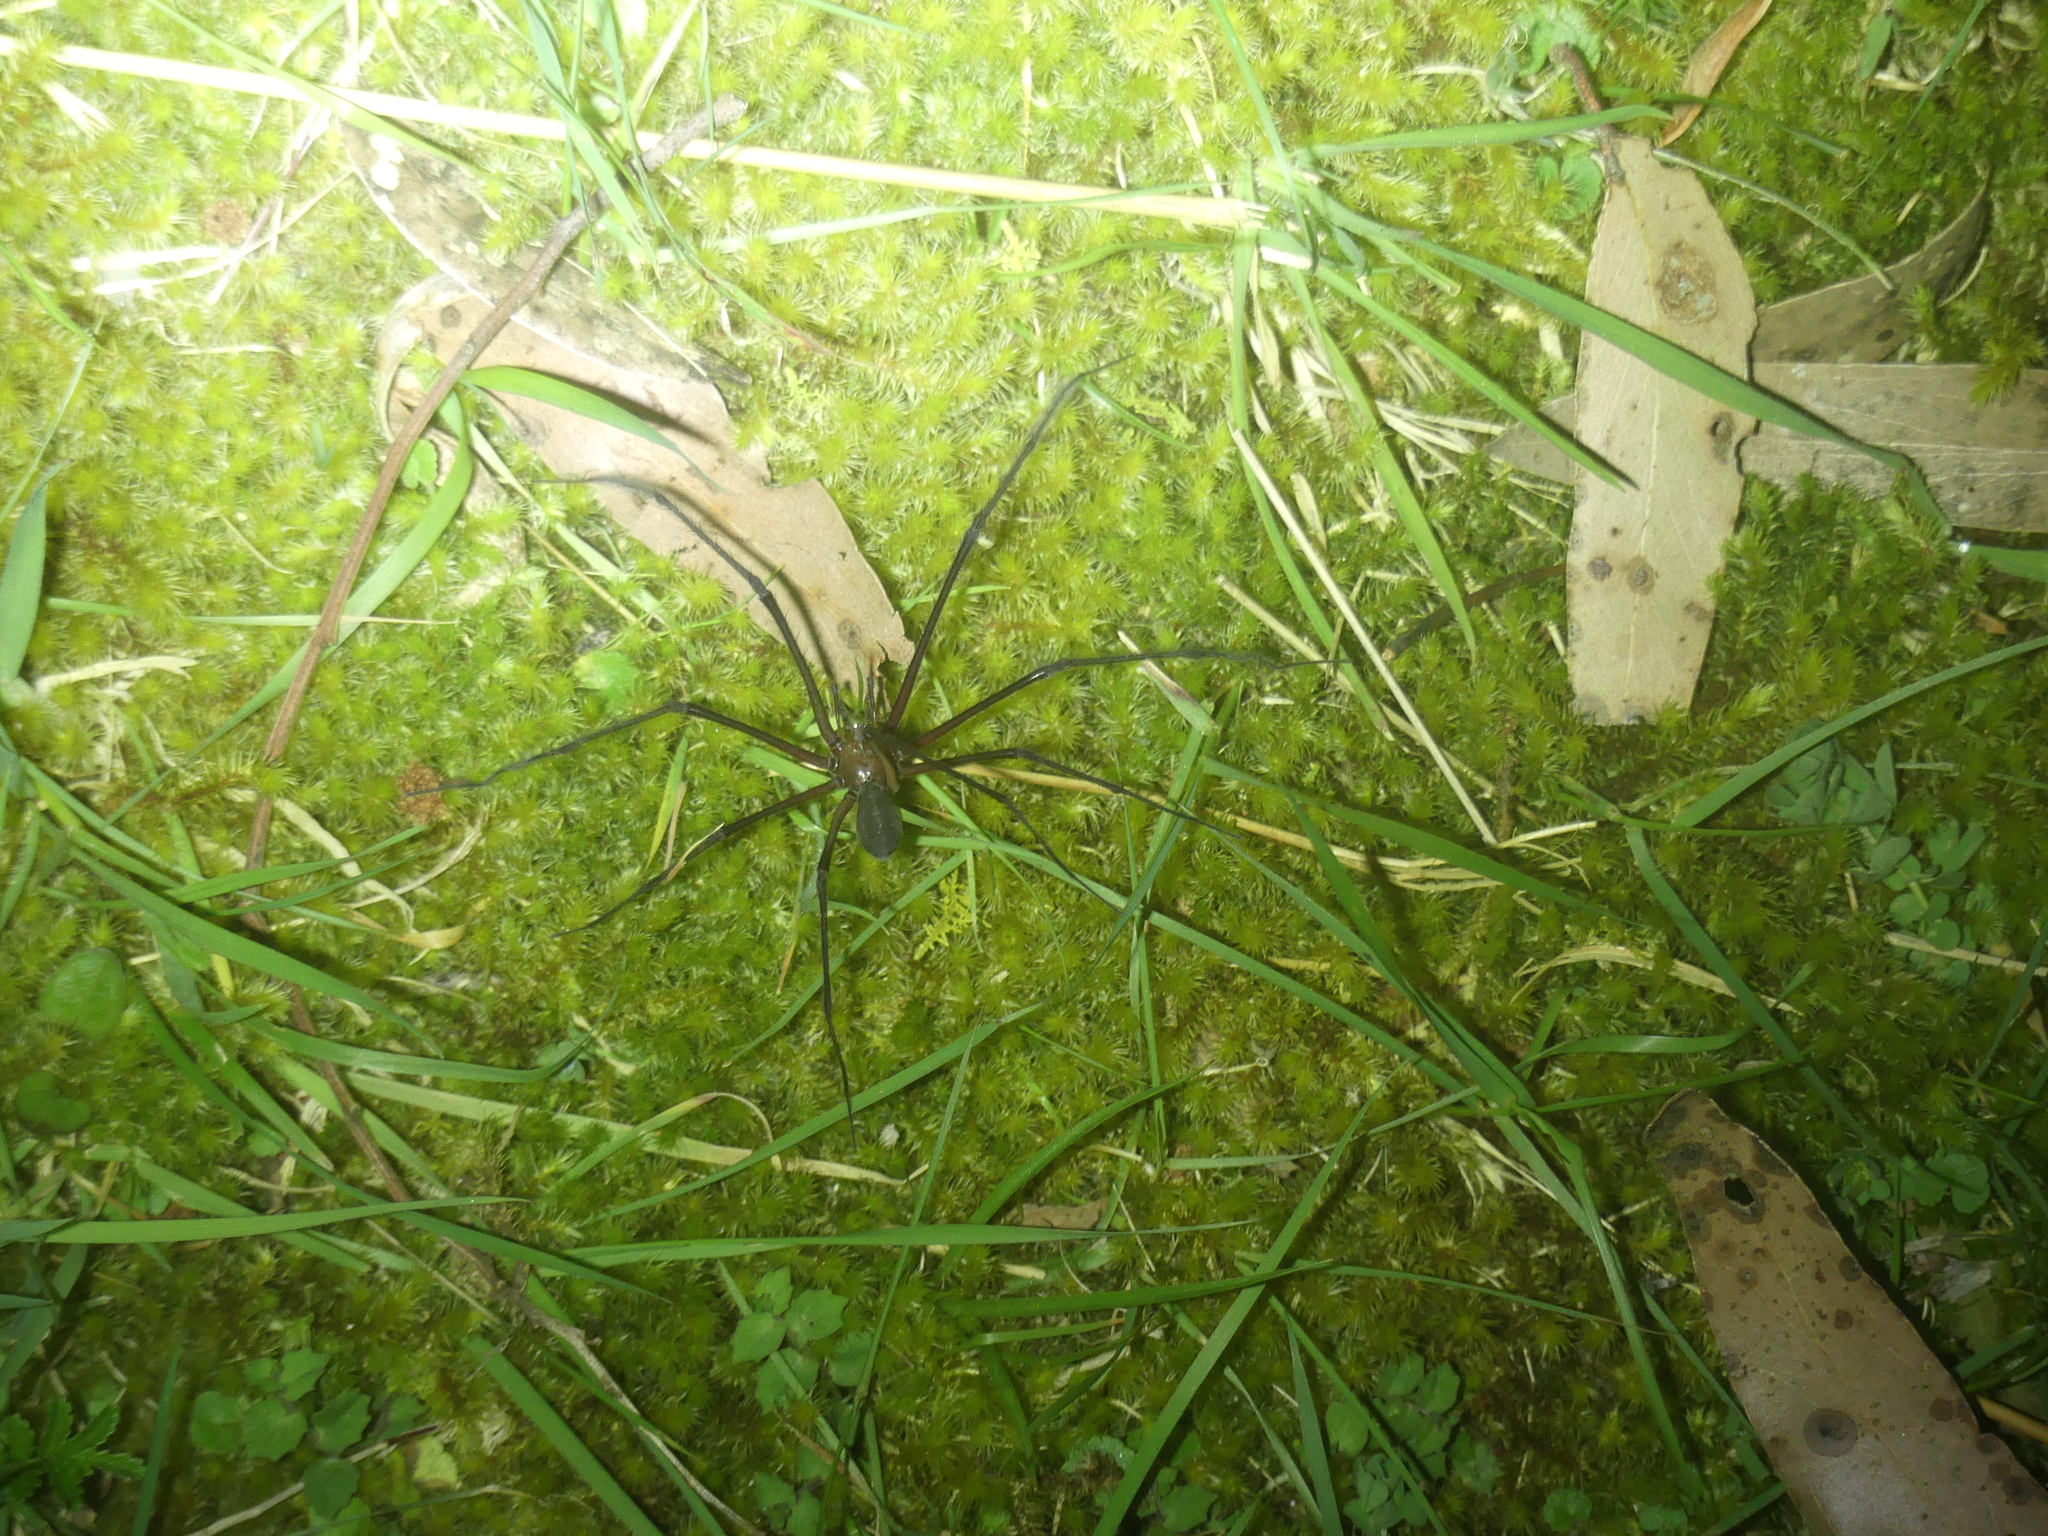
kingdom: Animalia
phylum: Arthropoda
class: Arachnida
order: Araneae
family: Gradungulidae
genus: Hickmania
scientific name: Hickmania troglodytes
